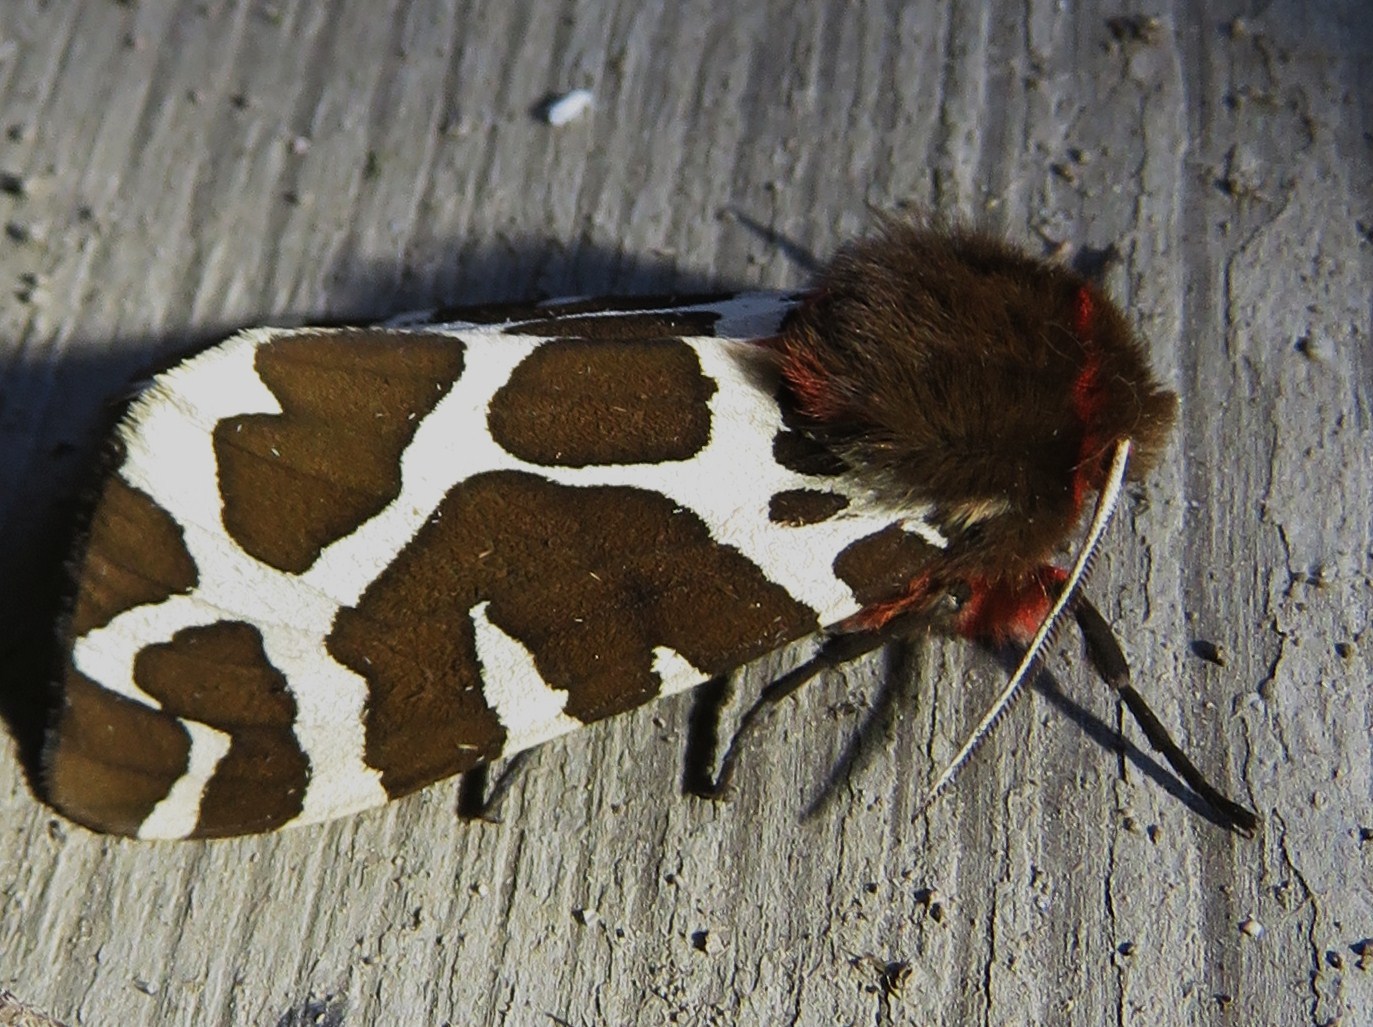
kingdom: Animalia
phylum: Arthropoda
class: Insecta
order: Lepidoptera
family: Erebidae
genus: Arctia
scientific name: Arctia caja
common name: Garden tiger
